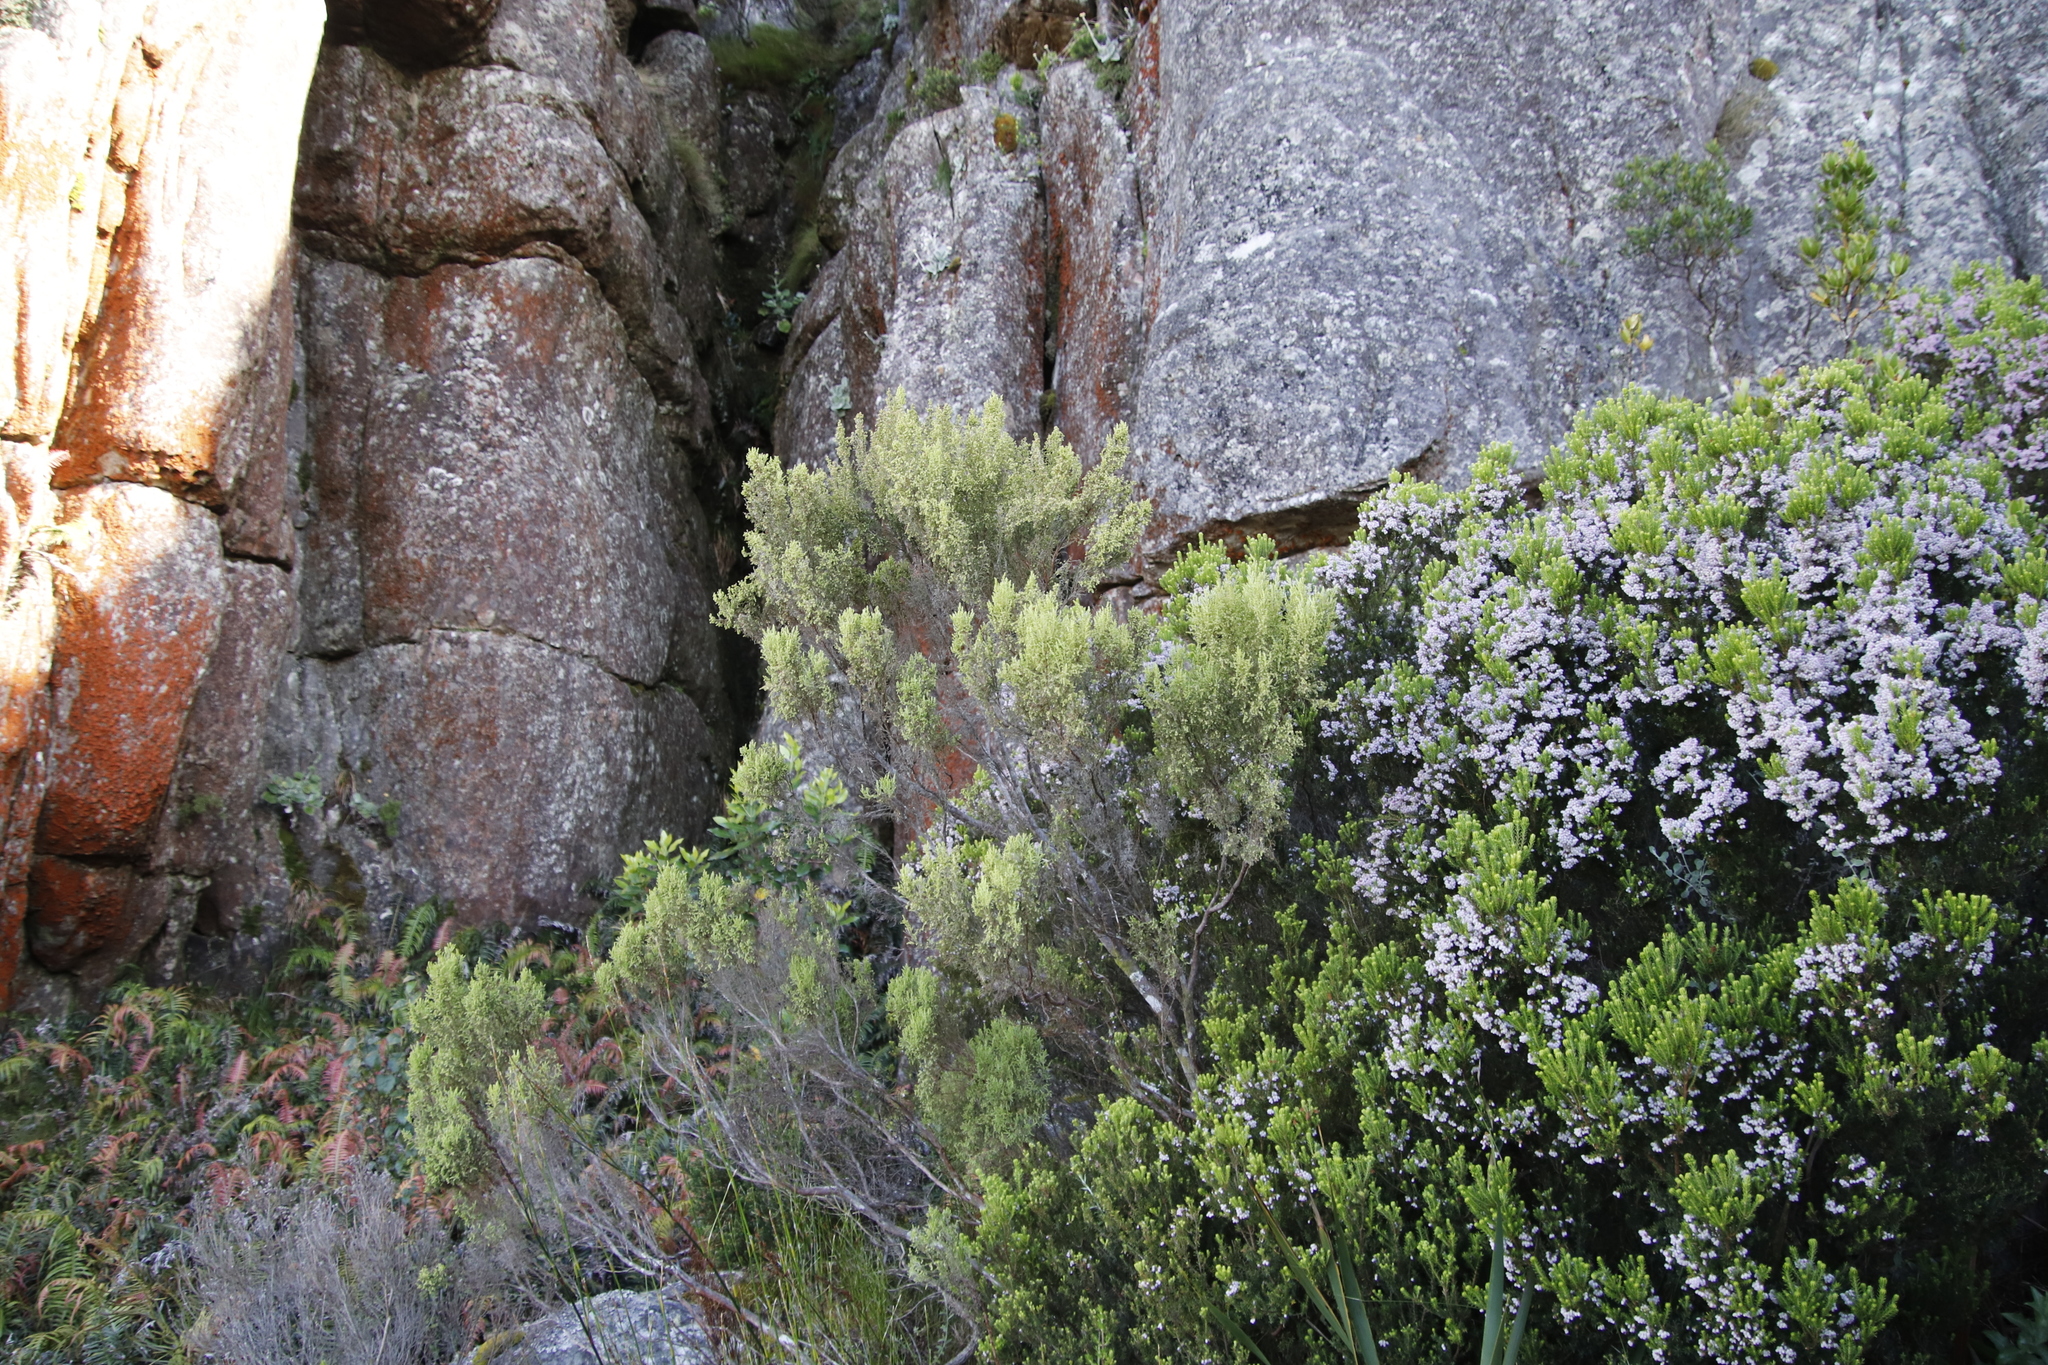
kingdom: Plantae
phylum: Tracheophyta
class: Magnoliopsida
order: Ericales
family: Ericaceae
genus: Erica
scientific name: Erica urceolata
